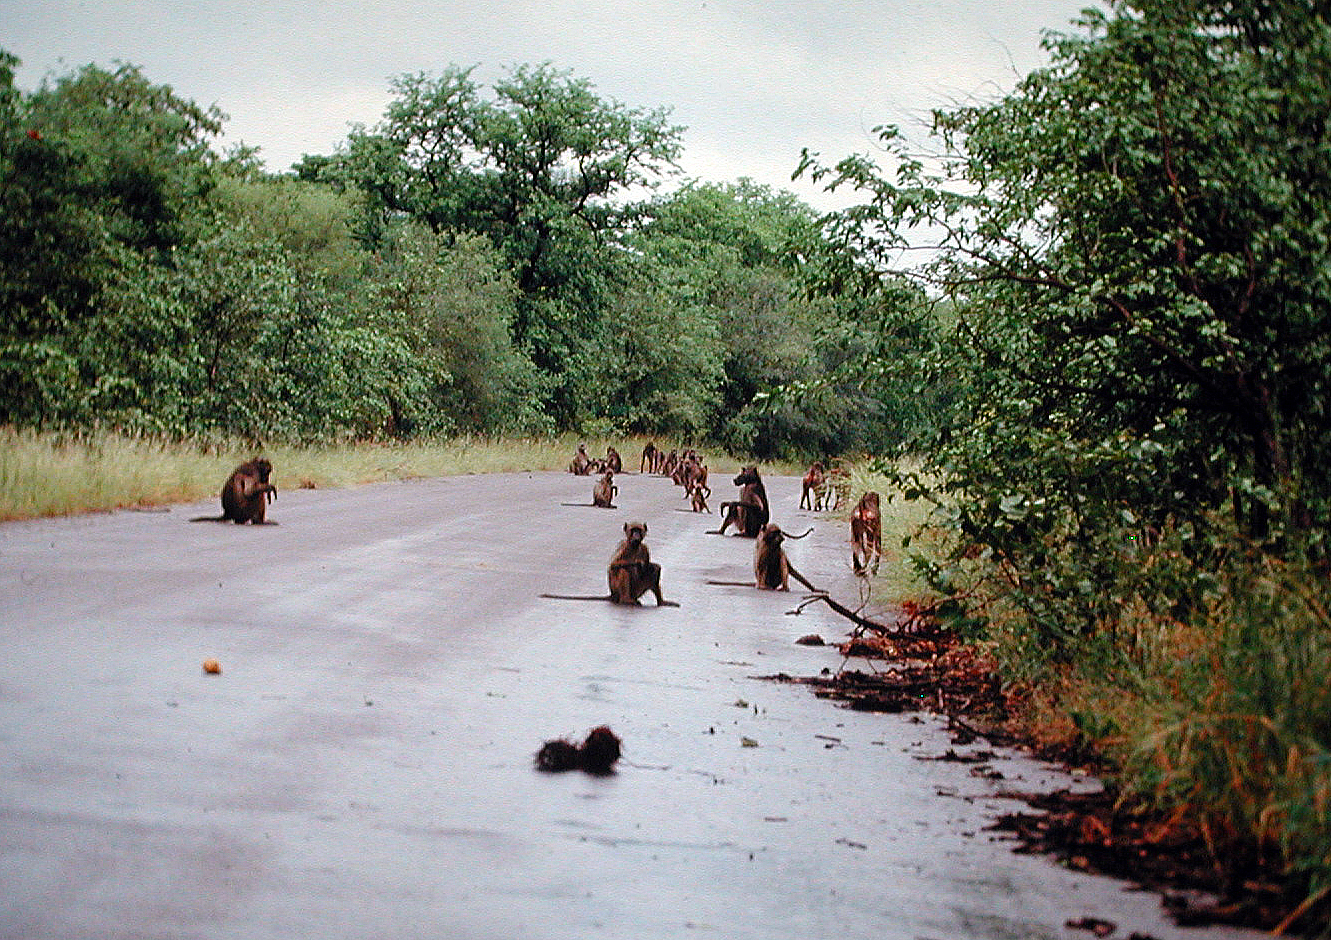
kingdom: Animalia
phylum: Chordata
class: Mammalia
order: Primates
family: Cercopithecidae
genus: Papio
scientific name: Papio ursinus
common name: Chacma baboon
